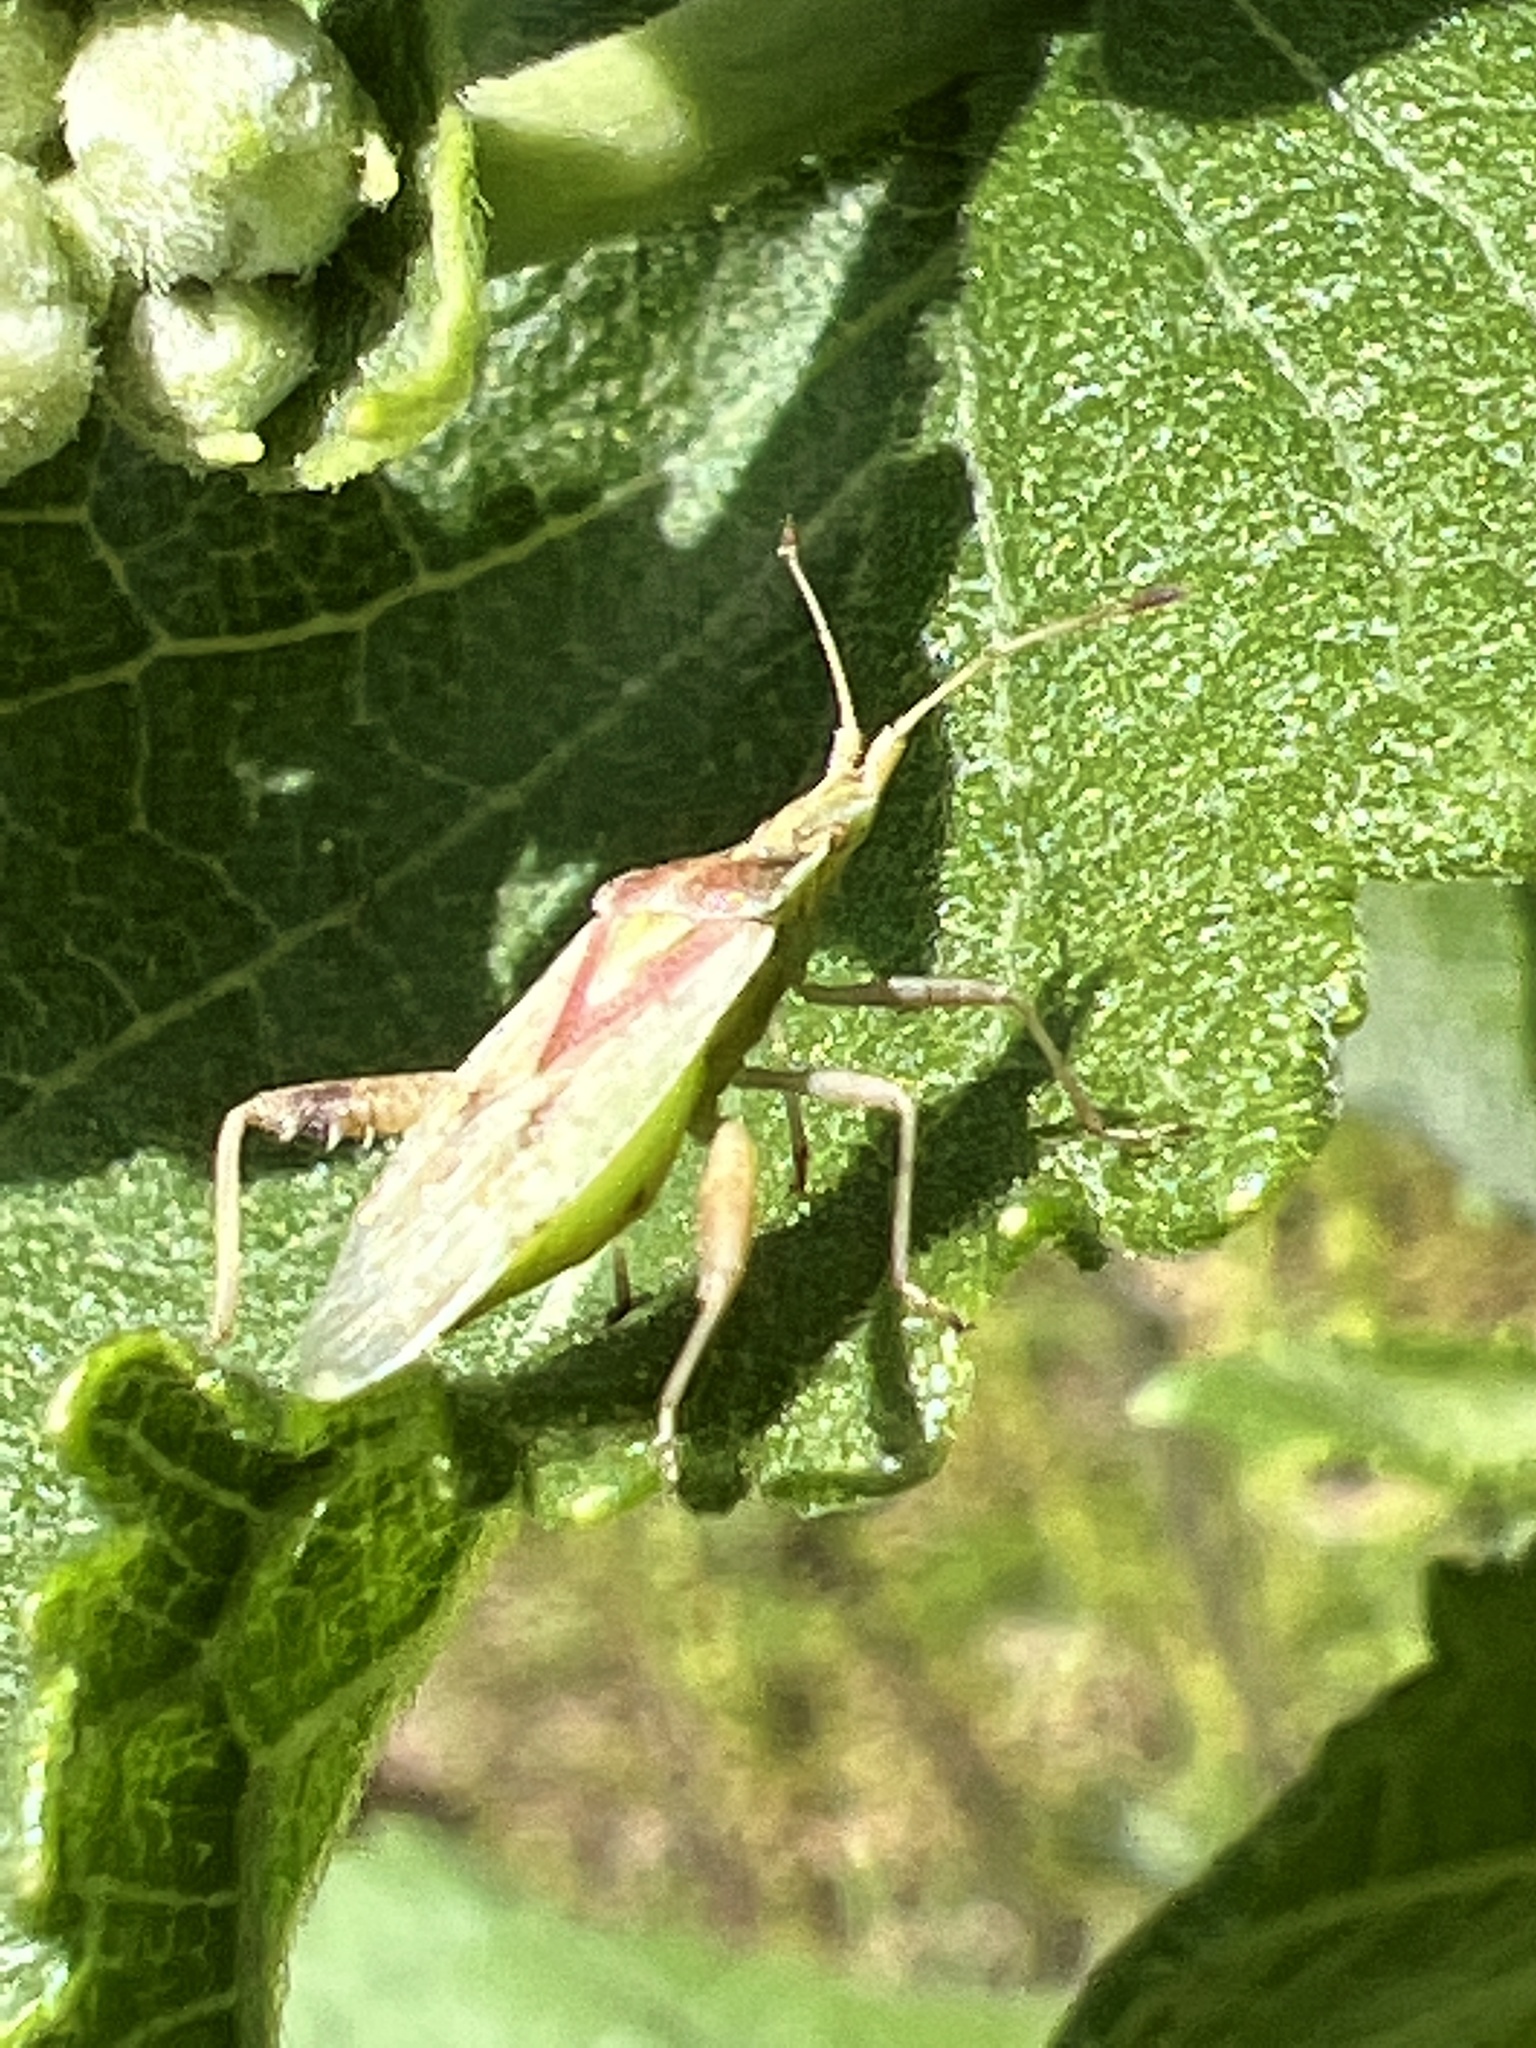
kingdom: Animalia
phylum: Arthropoda
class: Insecta
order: Hemiptera
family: Reduviidae
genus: Zelus
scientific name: Zelus luridus
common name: Pale green assassin bug
